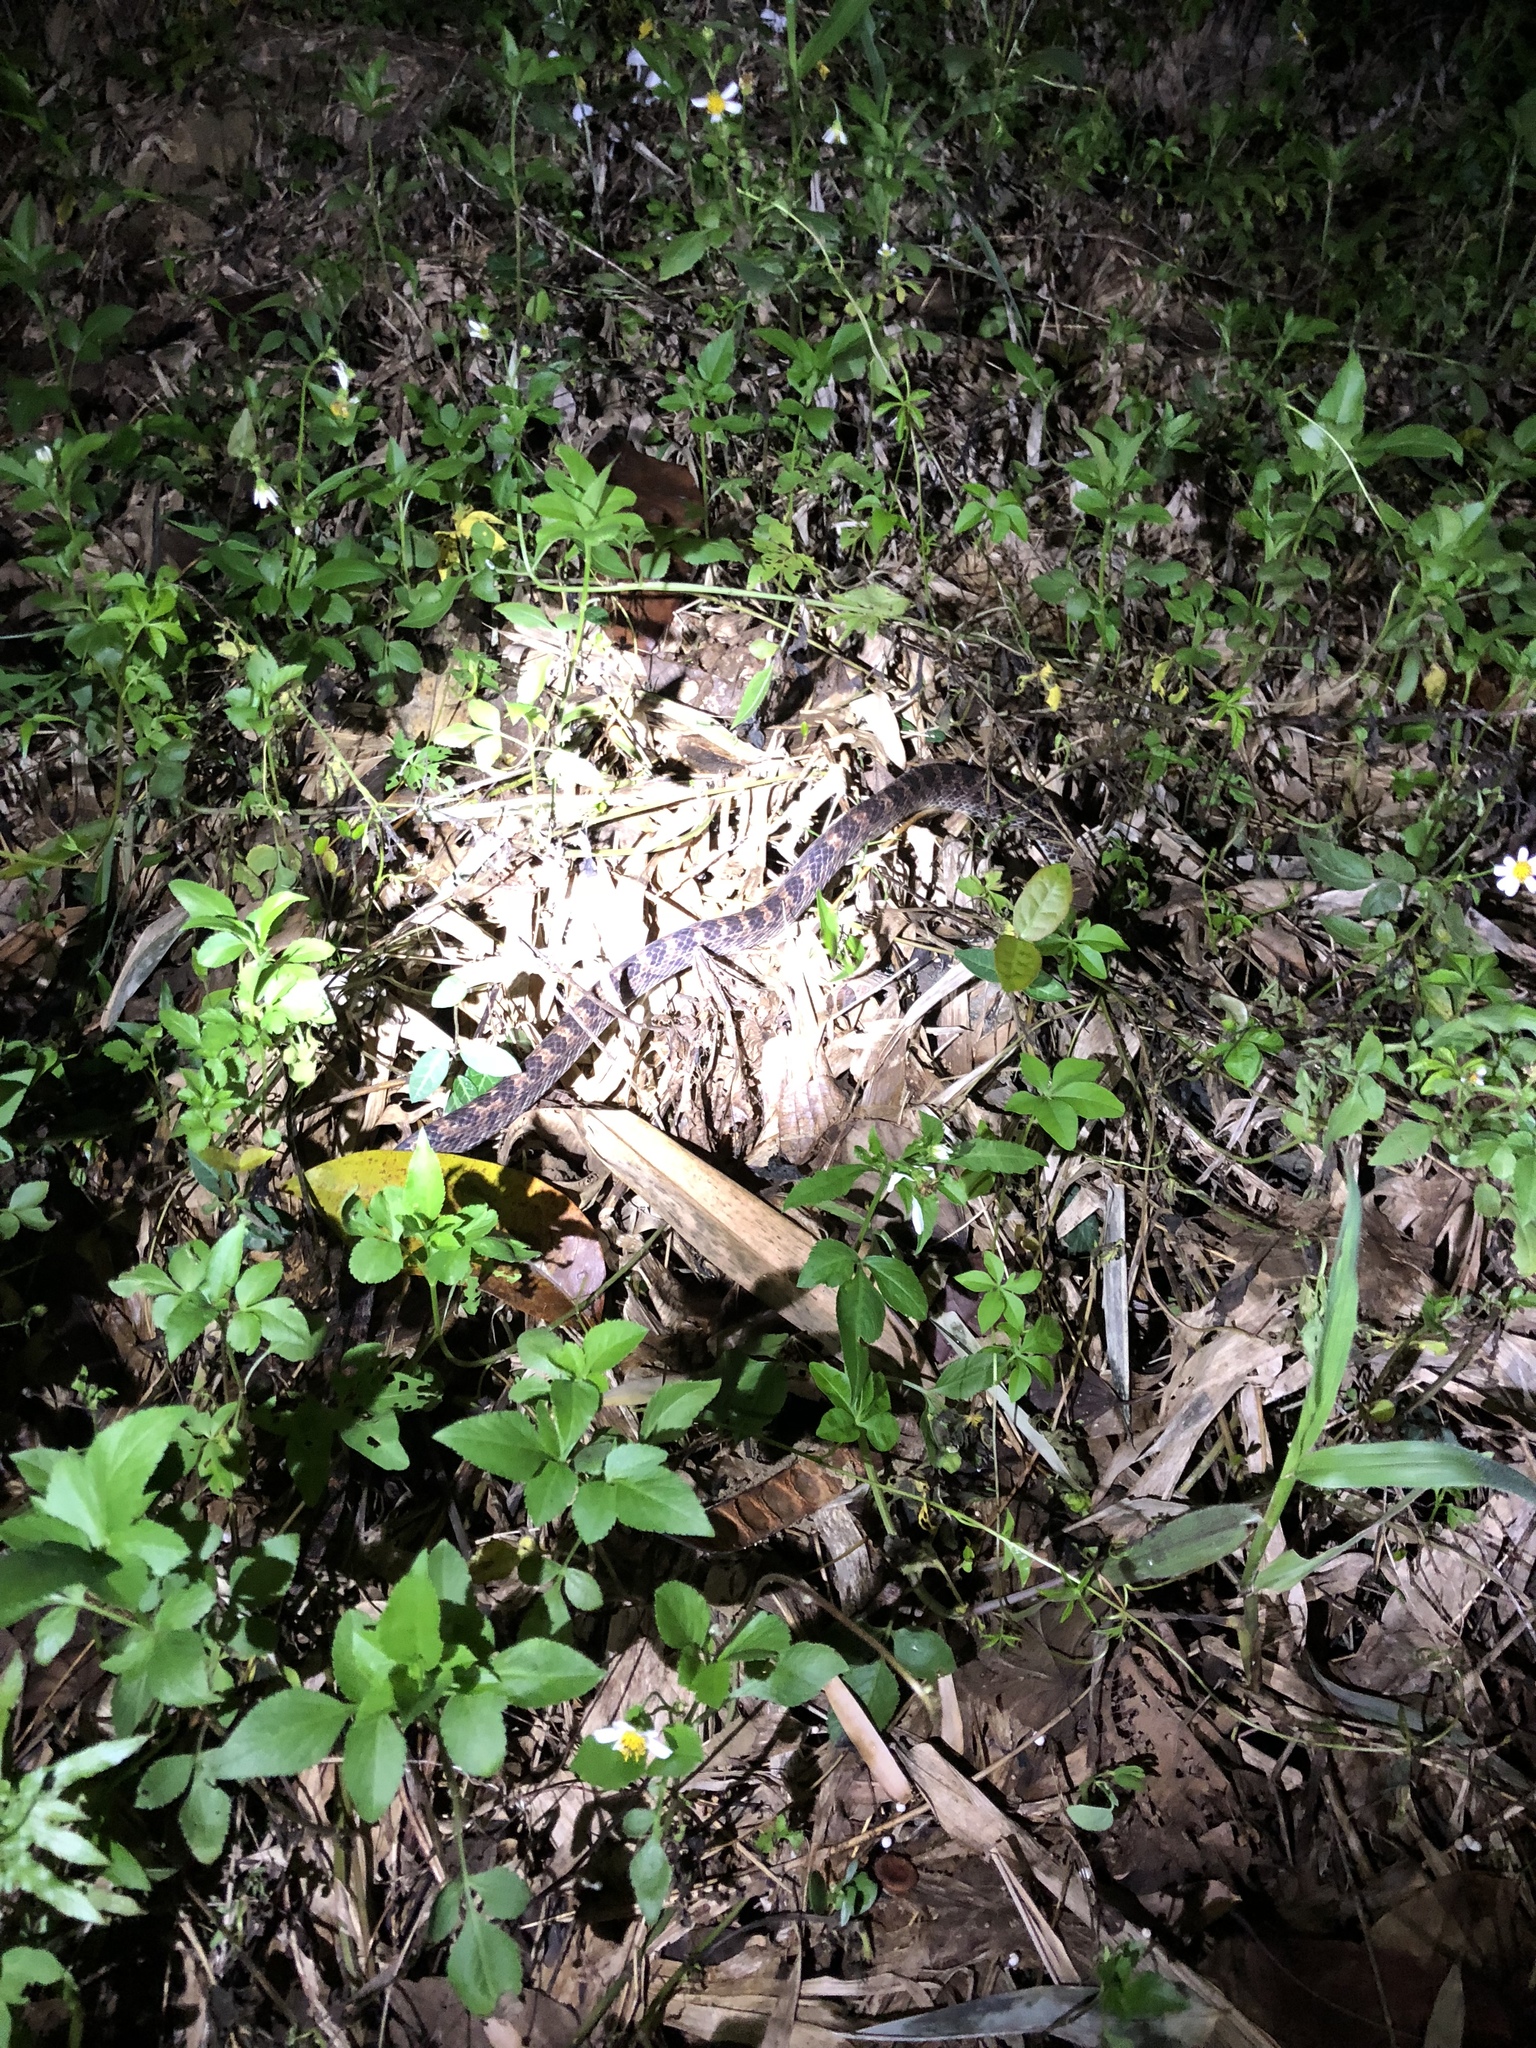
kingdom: Animalia
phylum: Chordata
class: Squamata
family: Colubridae
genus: Lycodon
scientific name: Lycodon rufozonatus
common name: Red-banded snake
